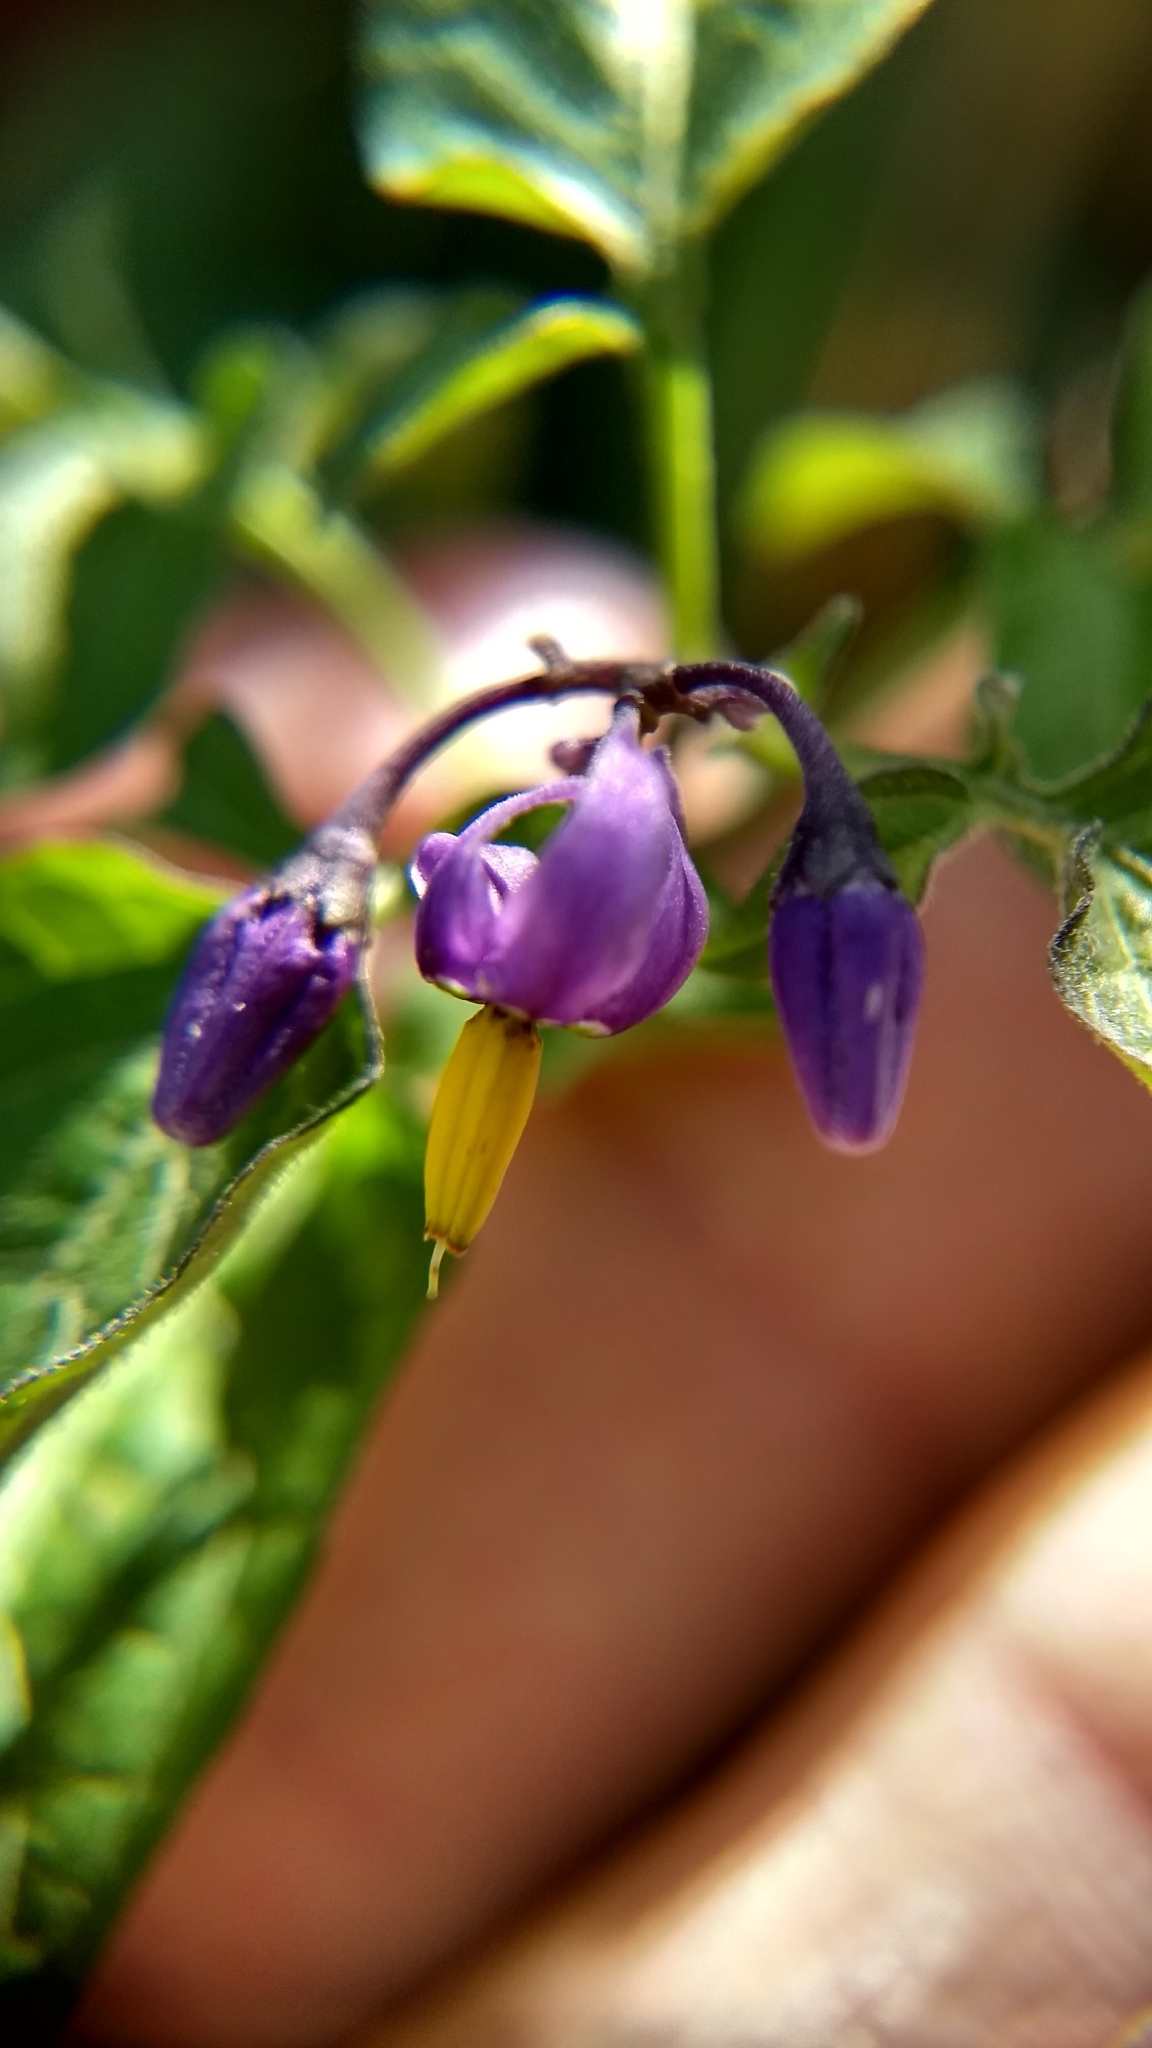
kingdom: Plantae
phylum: Tracheophyta
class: Magnoliopsida
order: Solanales
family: Solanaceae
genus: Solanum
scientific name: Solanum dulcamara
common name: Climbing nightshade
